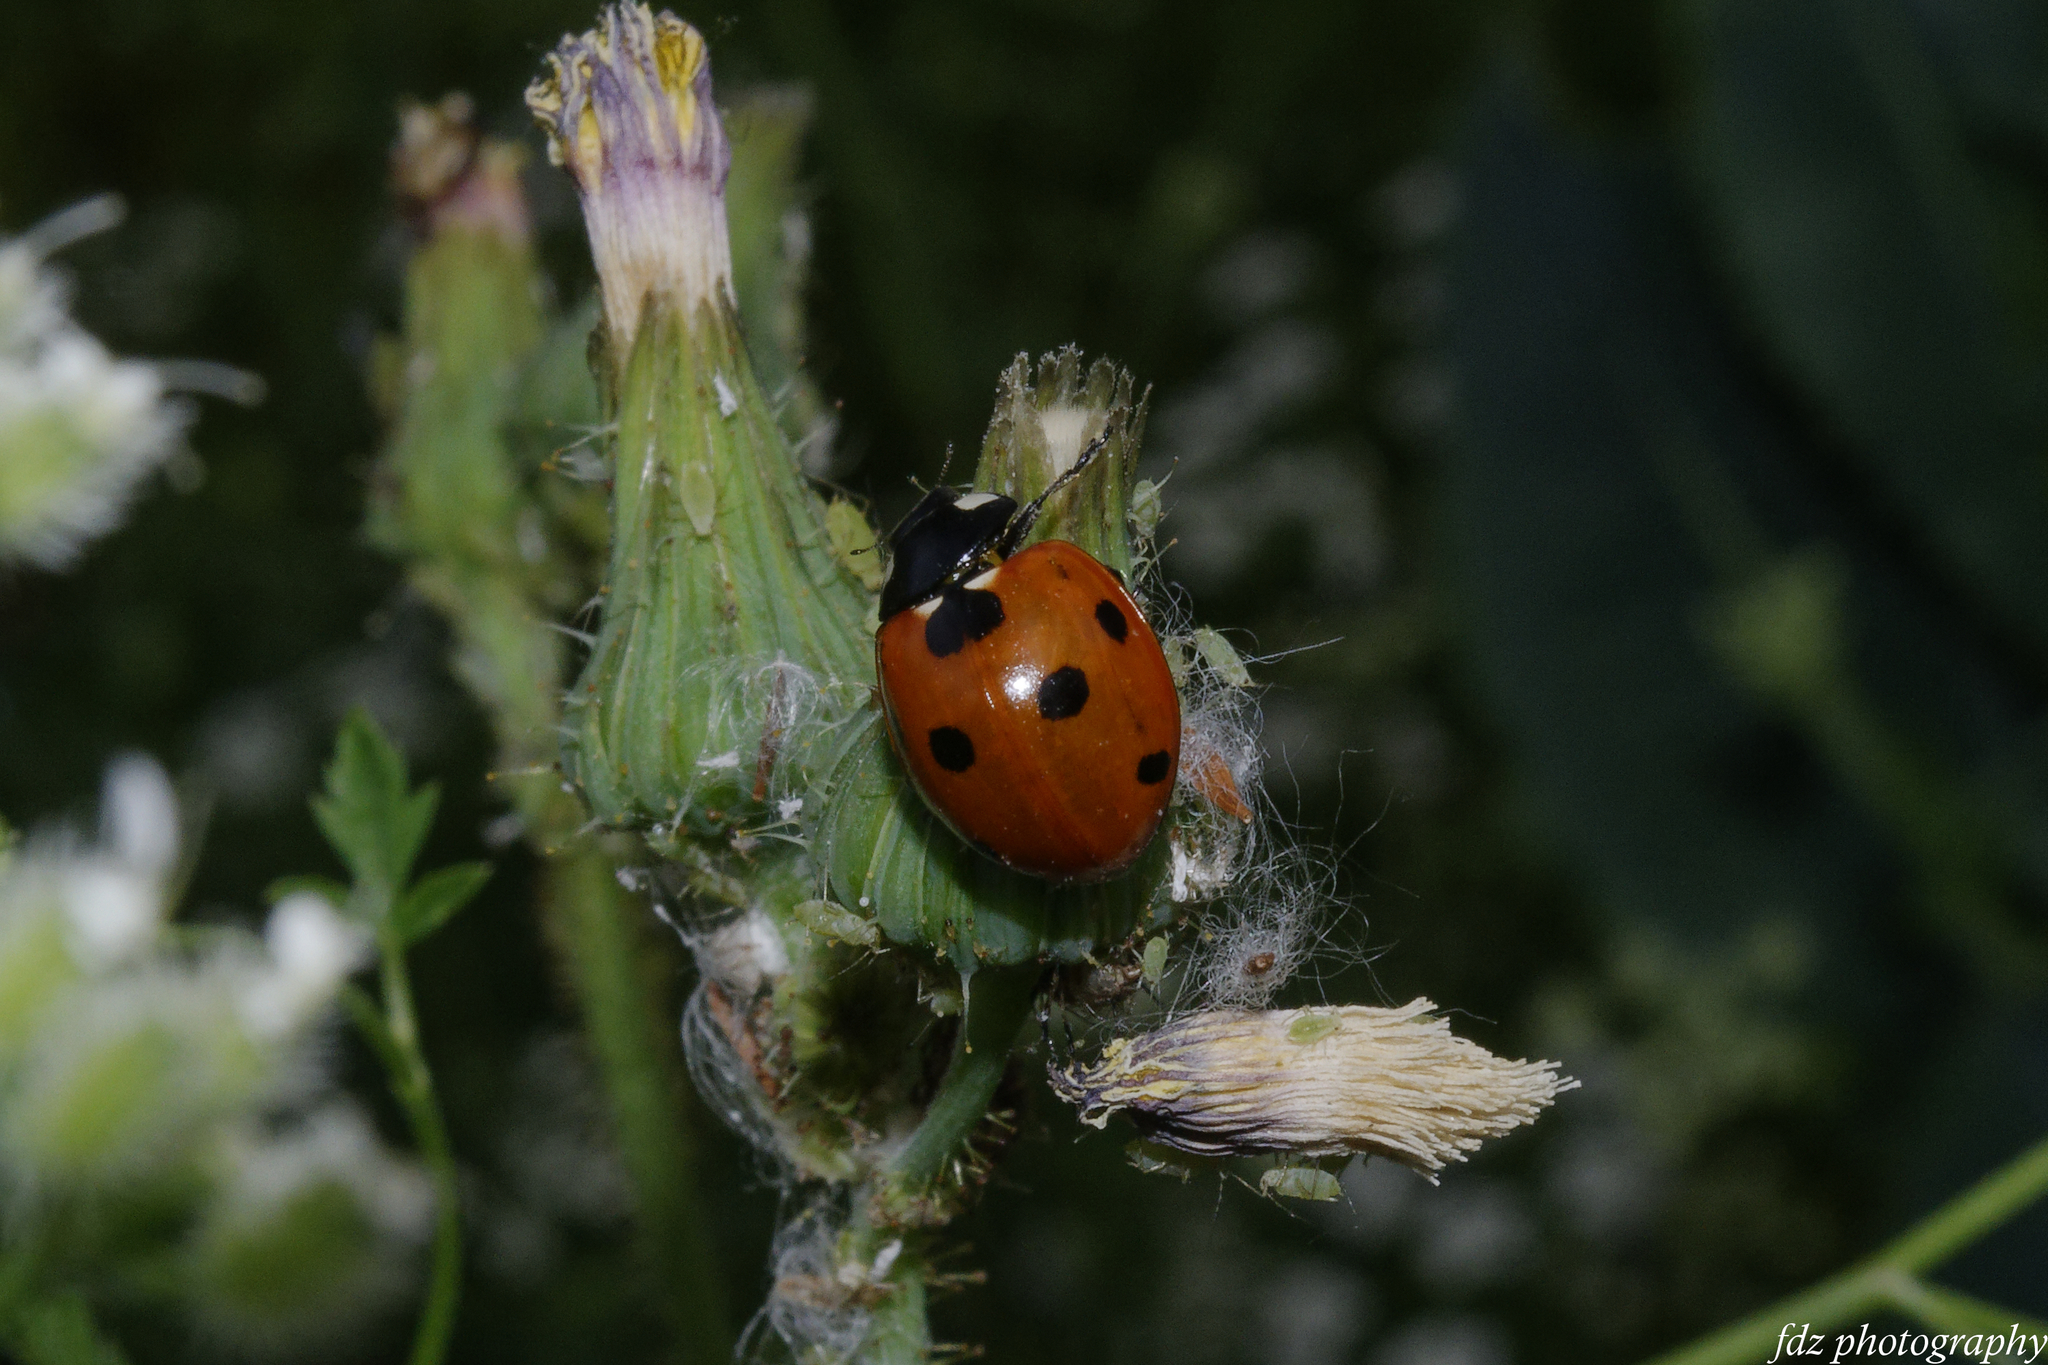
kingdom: Animalia
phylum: Arthropoda
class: Insecta
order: Coleoptera
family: Coccinellidae
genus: Coccinella
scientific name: Coccinella septempunctata
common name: Sevenspotted lady beetle
